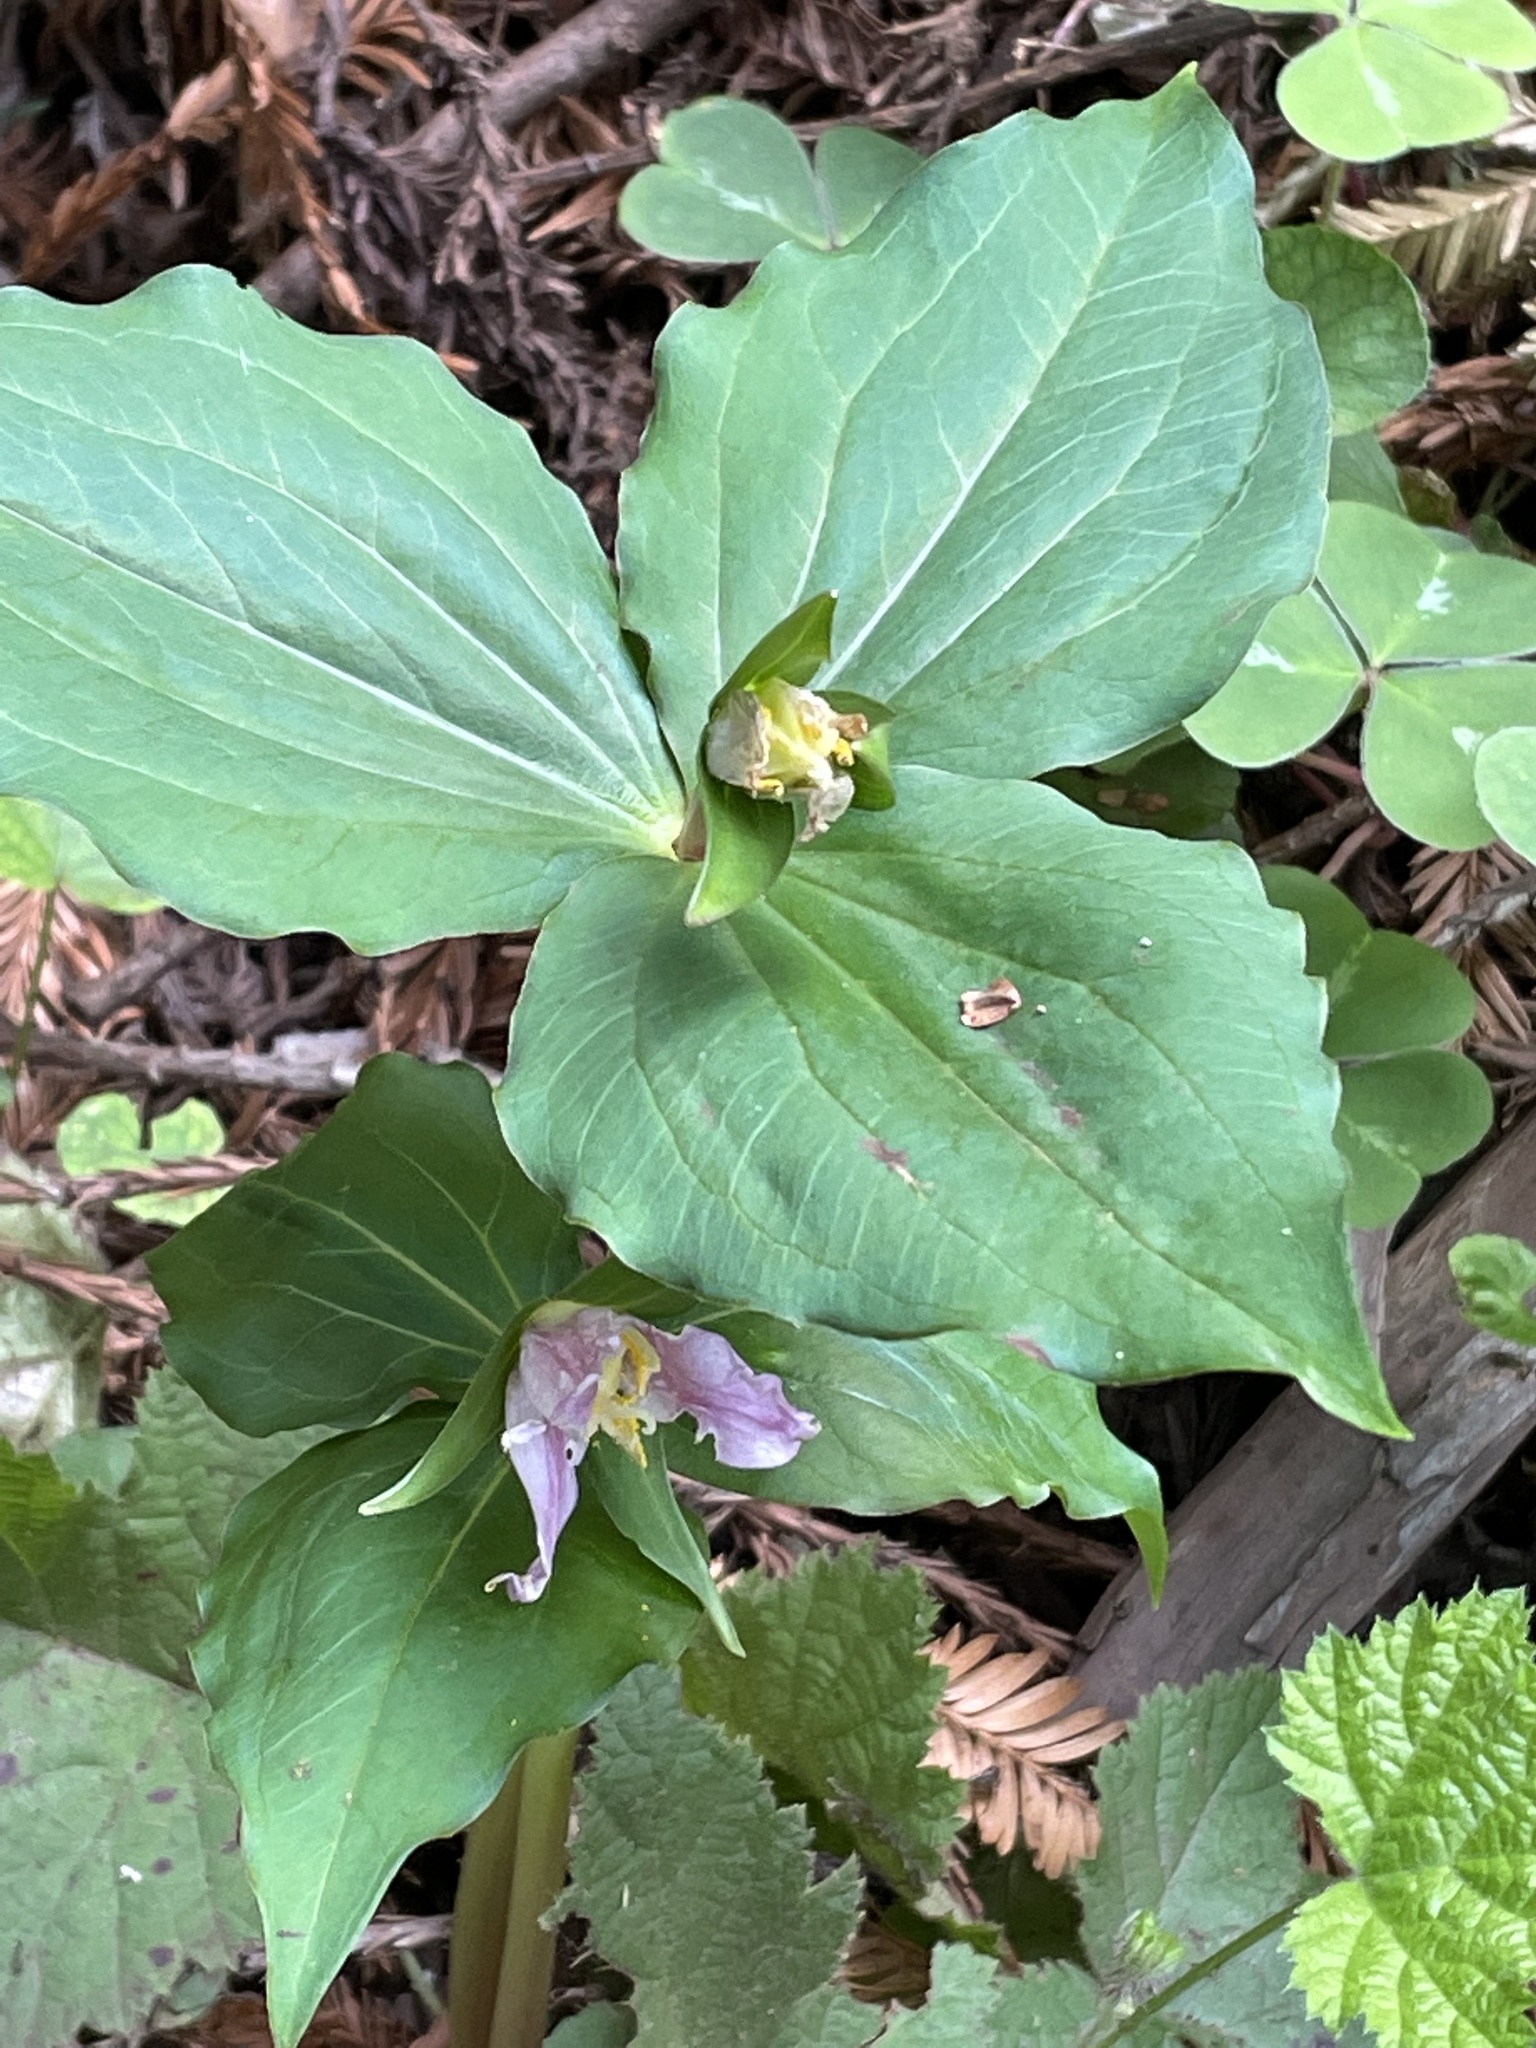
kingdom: Plantae
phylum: Tracheophyta
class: Liliopsida
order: Liliales
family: Melanthiaceae
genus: Trillium
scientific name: Trillium ovatum
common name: Pacific trillium
